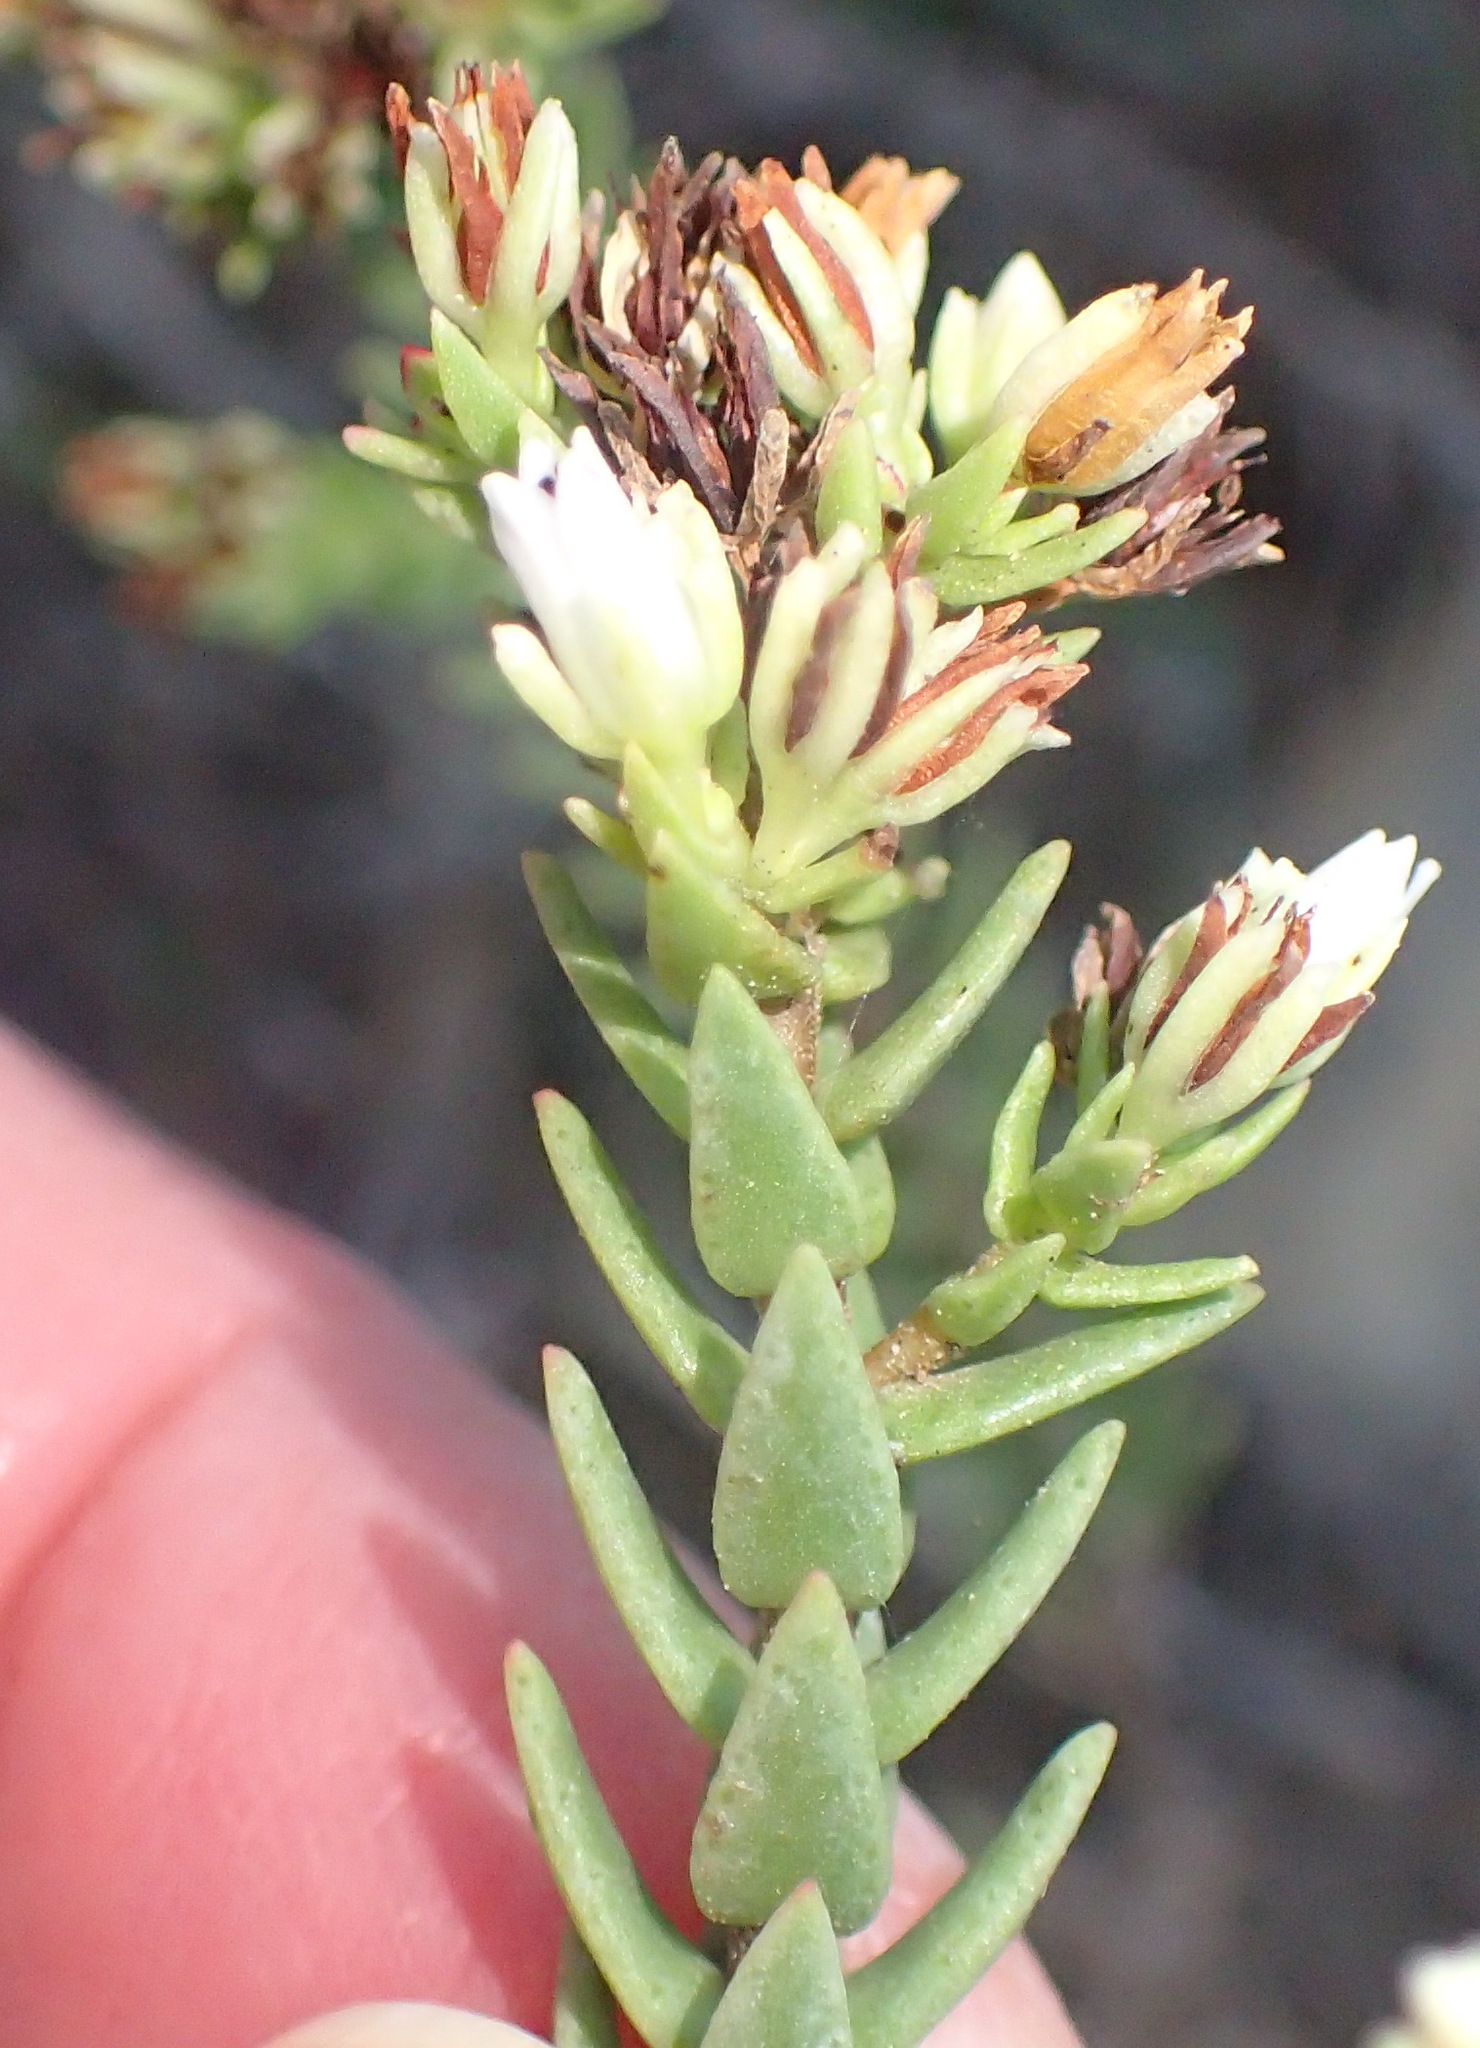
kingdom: Plantae
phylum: Tracheophyta
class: Magnoliopsida
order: Saxifragales
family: Crassulaceae
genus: Crassula
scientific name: Crassula ericoides
